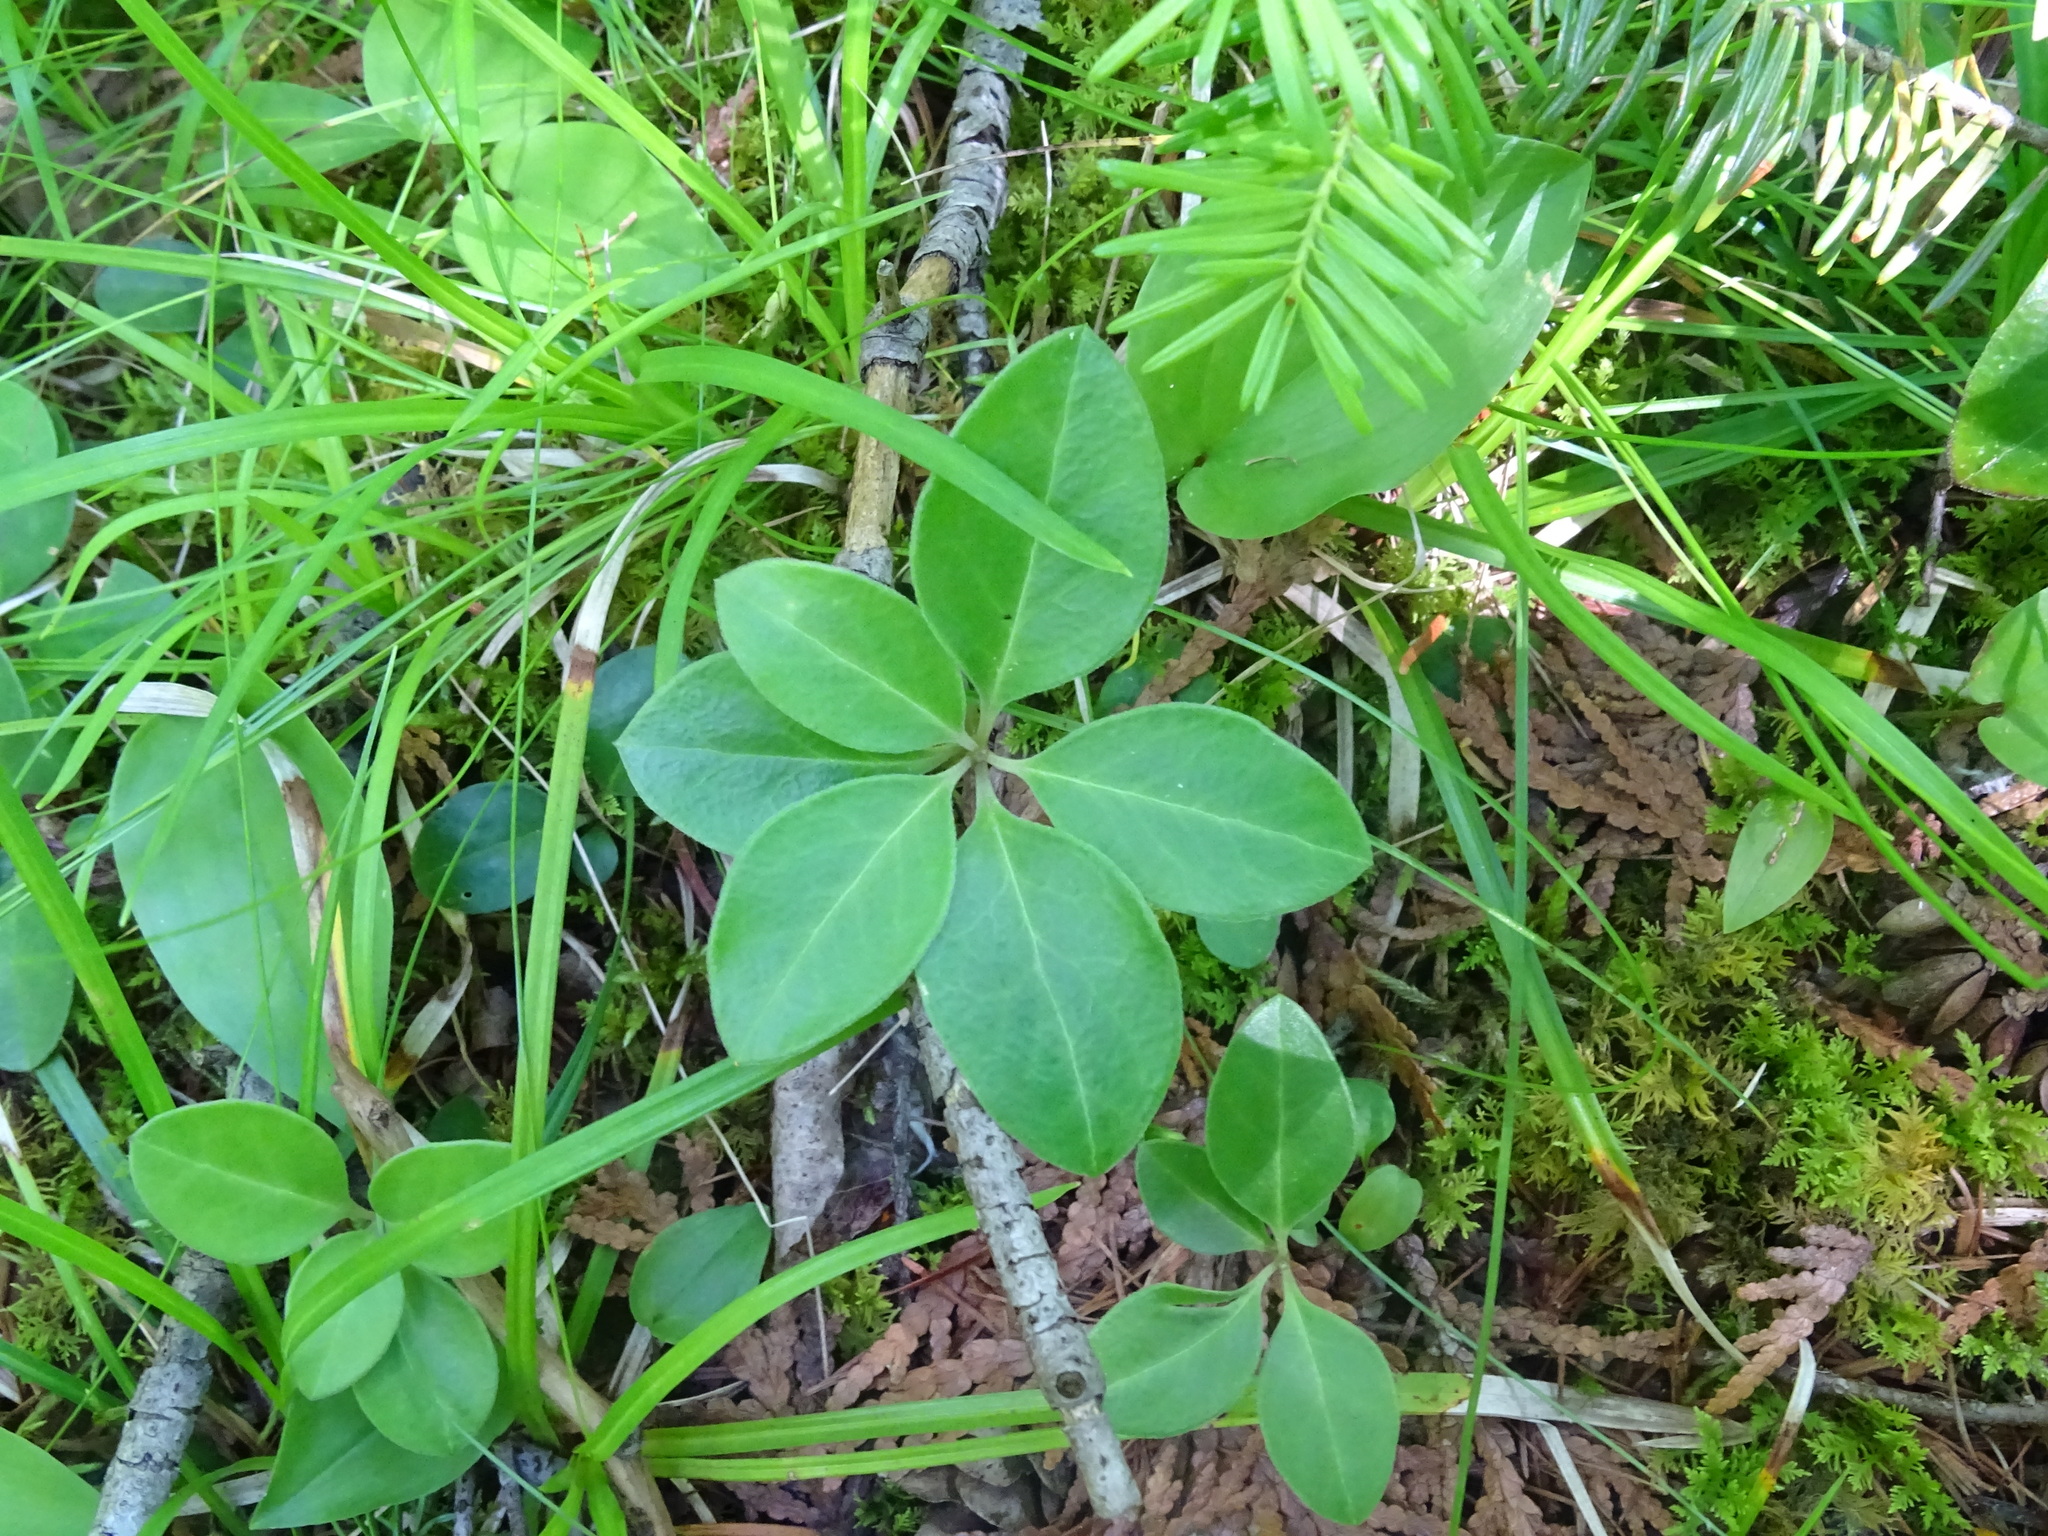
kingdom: Plantae
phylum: Tracheophyta
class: Magnoliopsida
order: Fabales
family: Polygalaceae
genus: Polygaloides
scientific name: Polygaloides paucifolia
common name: Bird-on-the-wing
